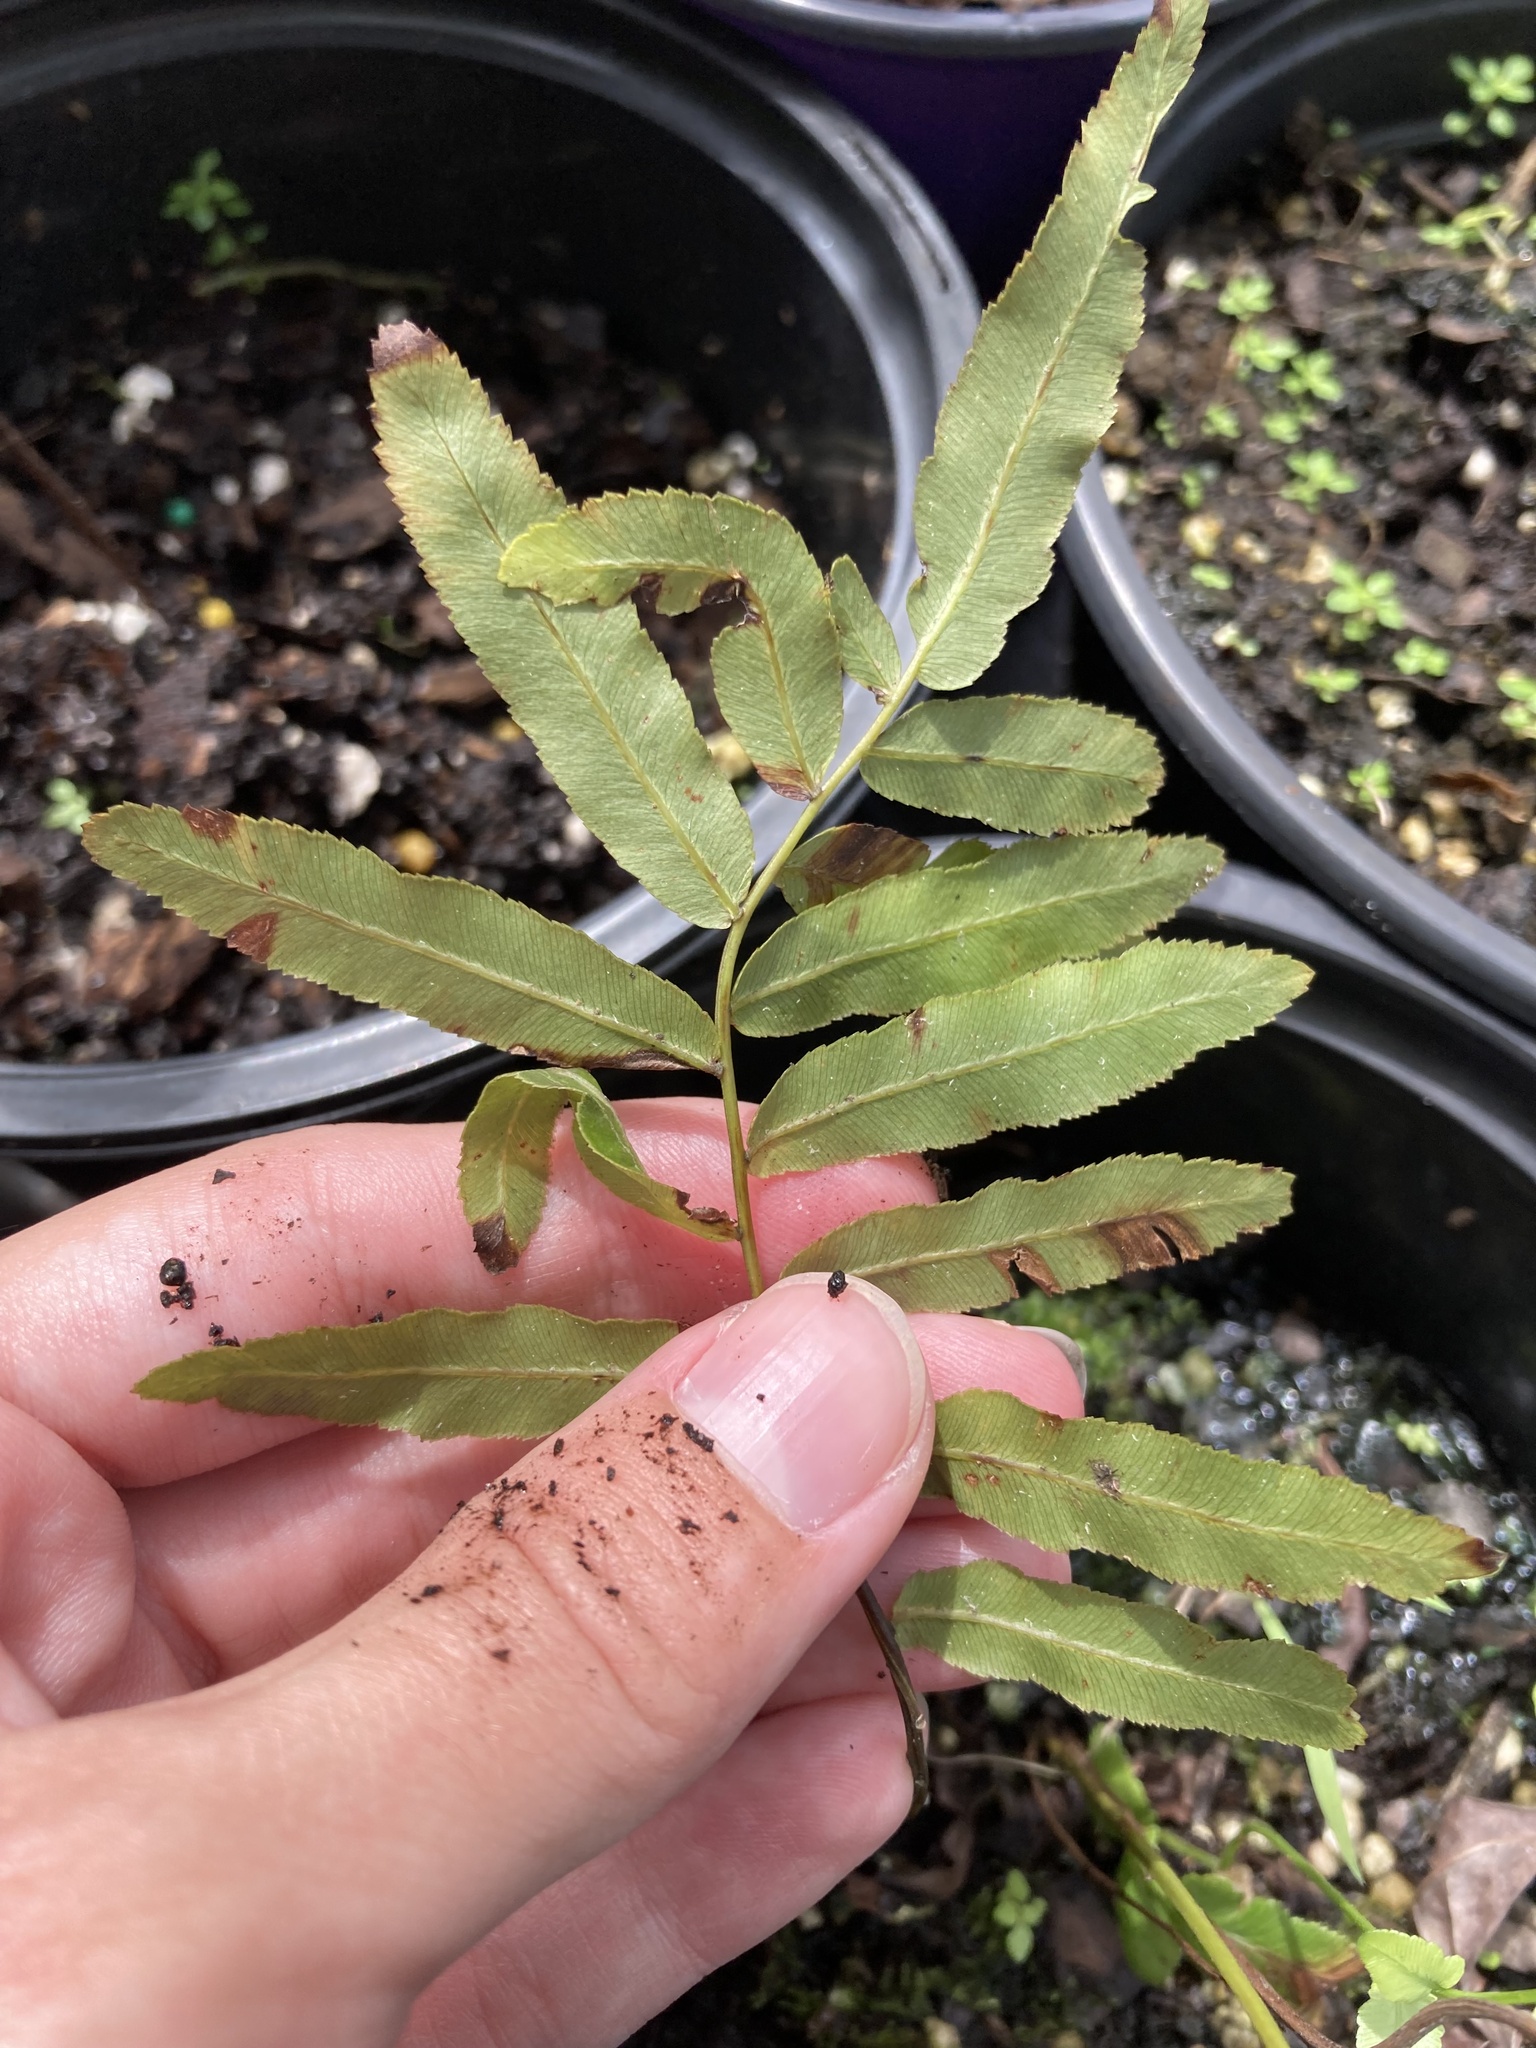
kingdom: Plantae
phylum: Tracheophyta
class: Polypodiopsida
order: Polypodiales
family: Blechnaceae
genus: Telmatoblechnum
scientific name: Telmatoblechnum serrulatum
